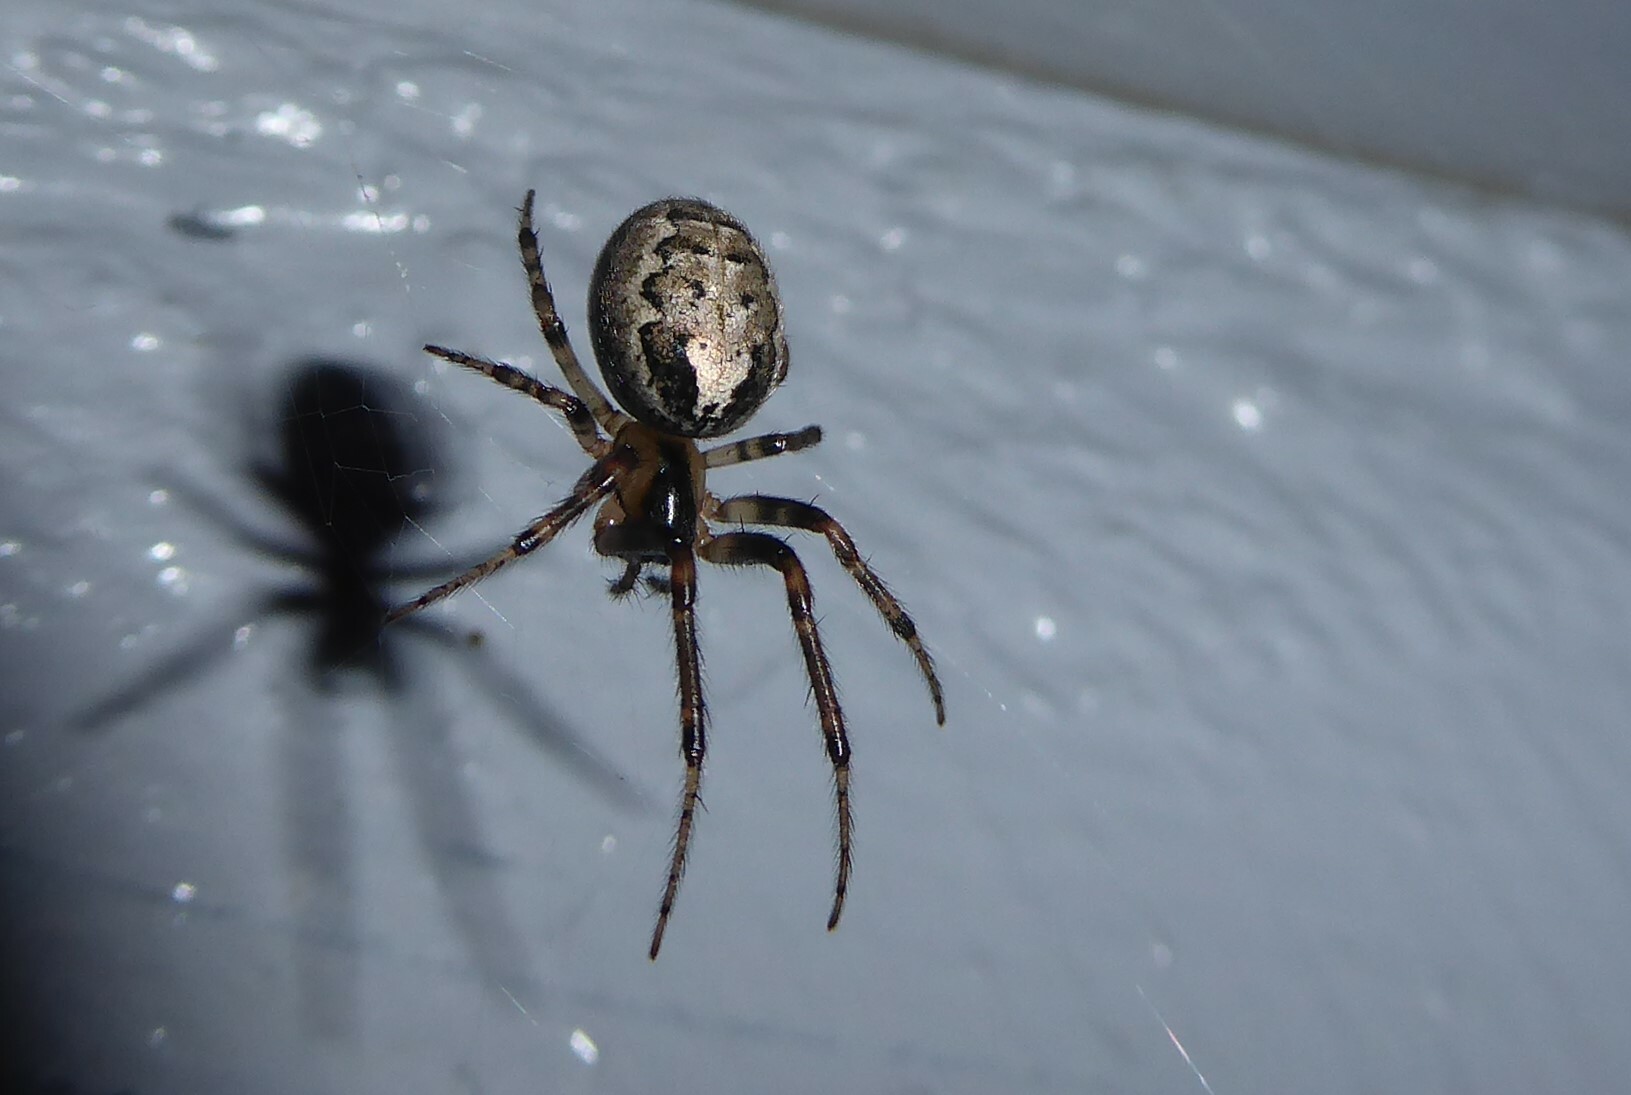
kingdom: Animalia
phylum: Arthropoda
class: Arachnida
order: Araneae
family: Araneidae
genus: Zygiella
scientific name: Zygiella x-notata
